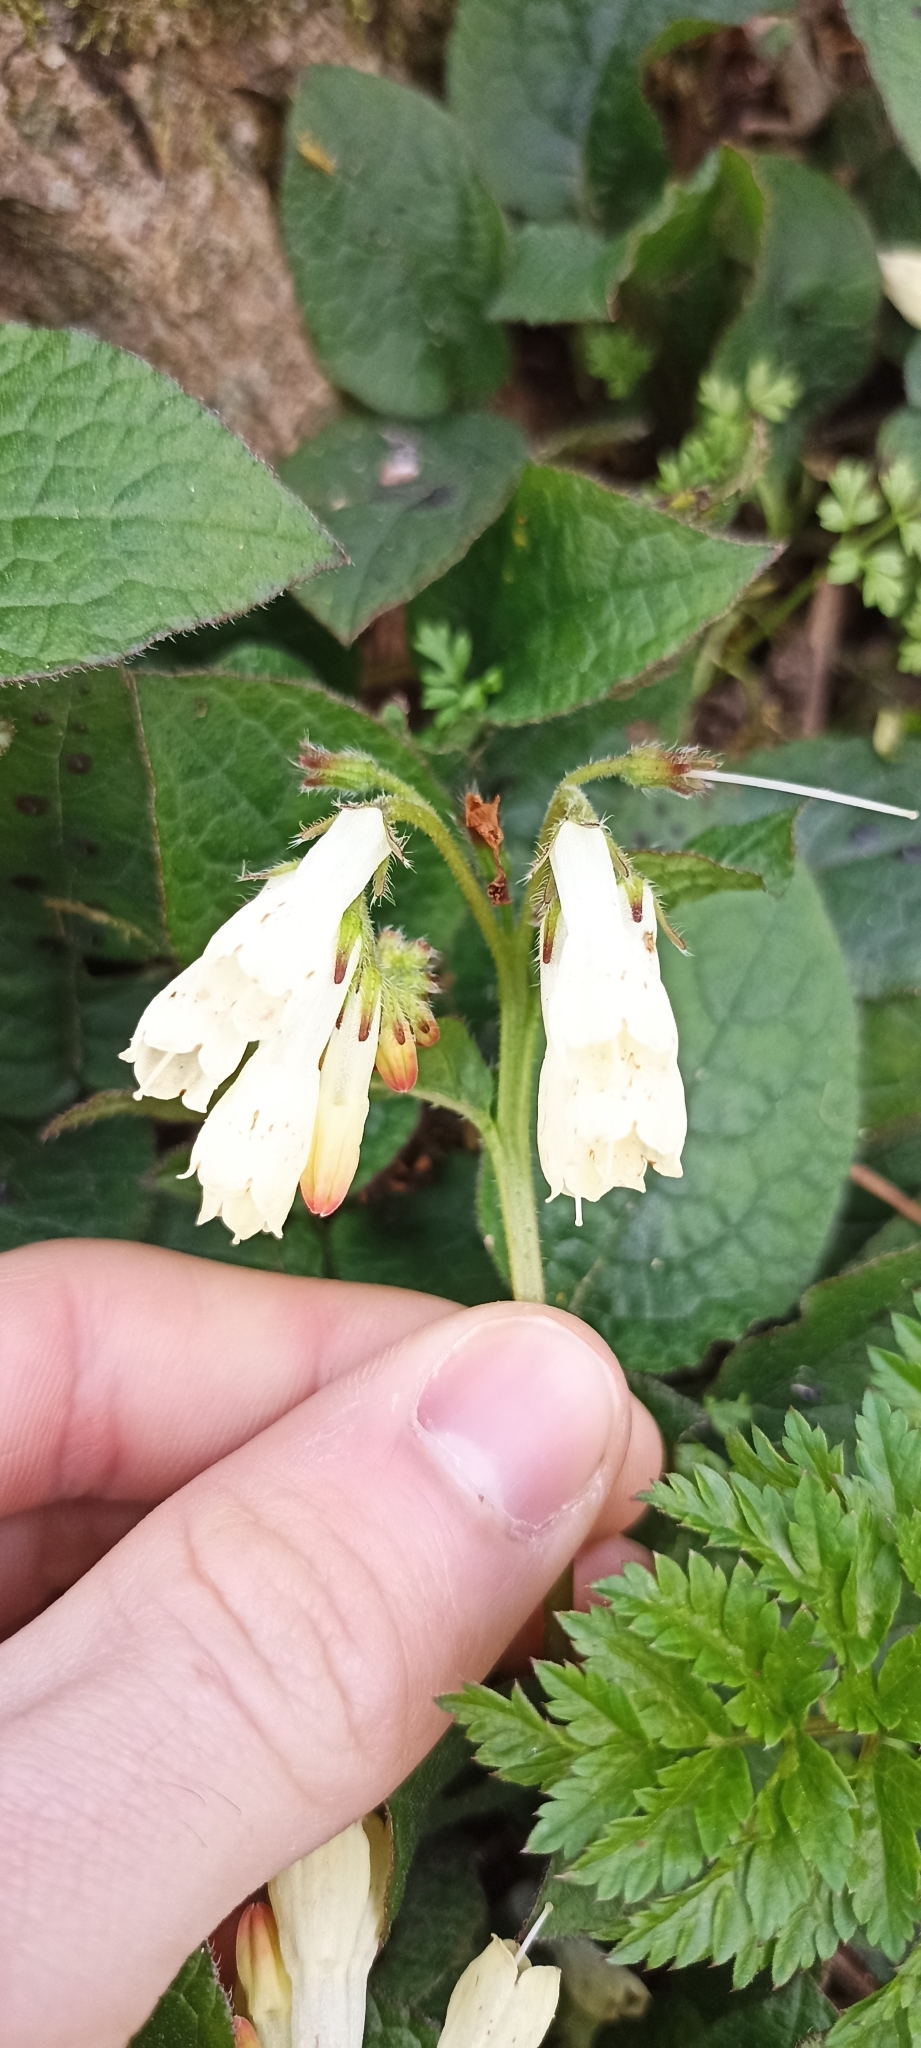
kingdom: Plantae
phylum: Tracheophyta
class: Magnoliopsida
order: Boraginales
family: Boraginaceae
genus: Symphytum
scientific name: Symphytum officinale
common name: Common comfrey
